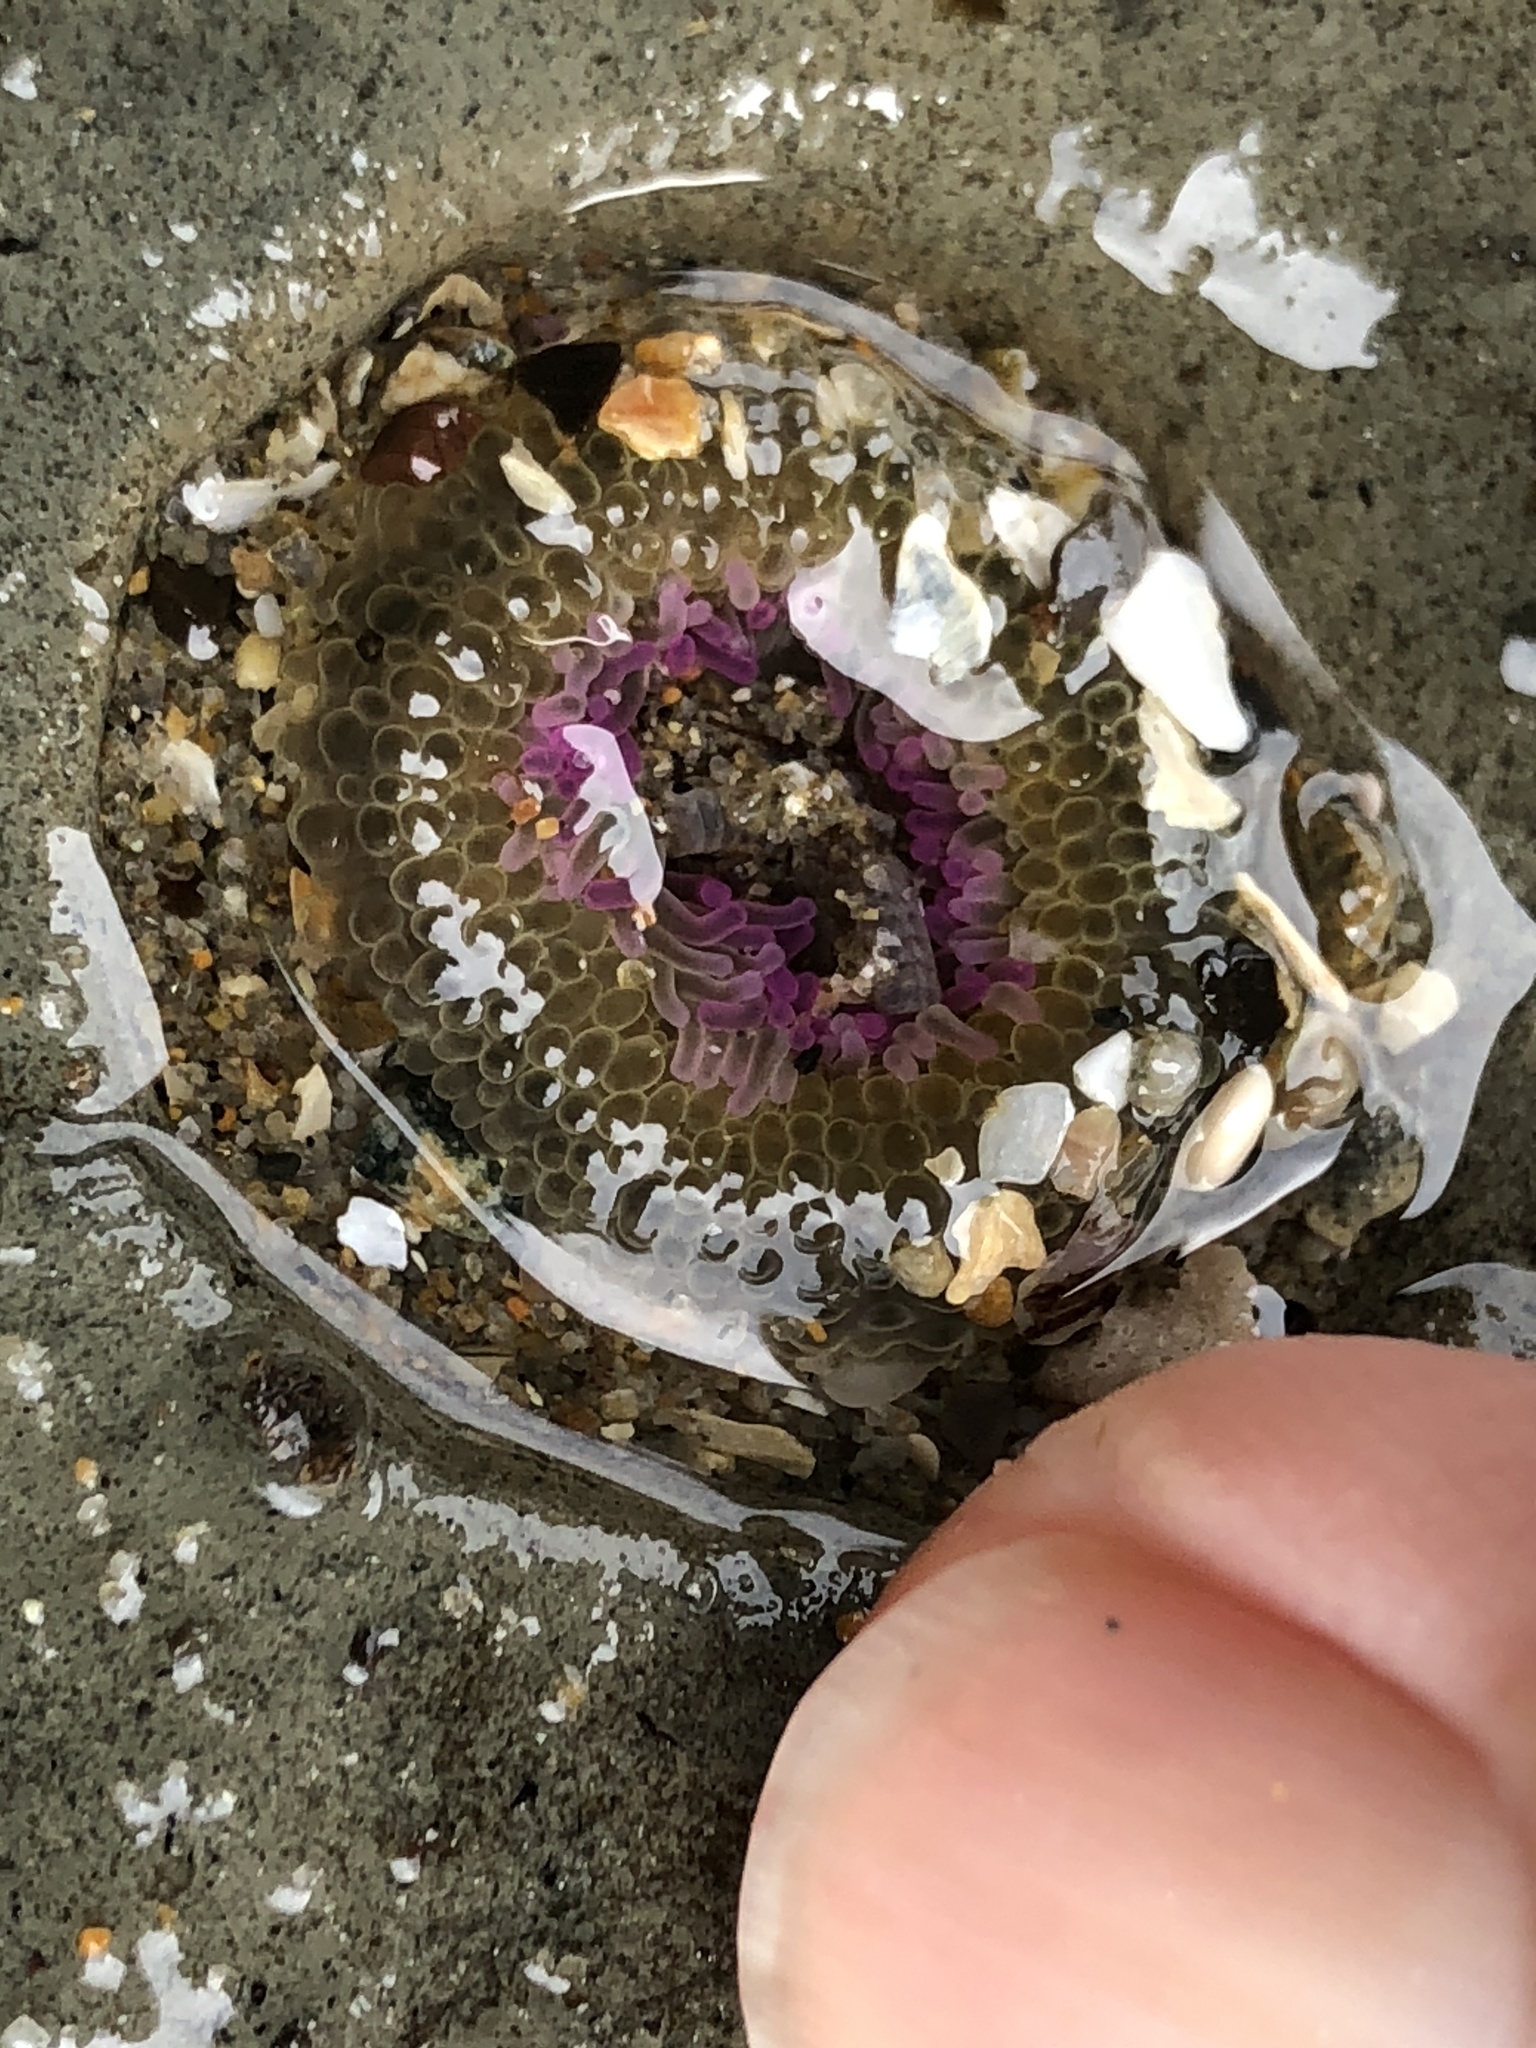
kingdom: Animalia
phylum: Cnidaria
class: Anthozoa
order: Actiniaria
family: Actiniidae
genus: Anthopleura
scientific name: Anthopleura elegantissima
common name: Clonal anemone
